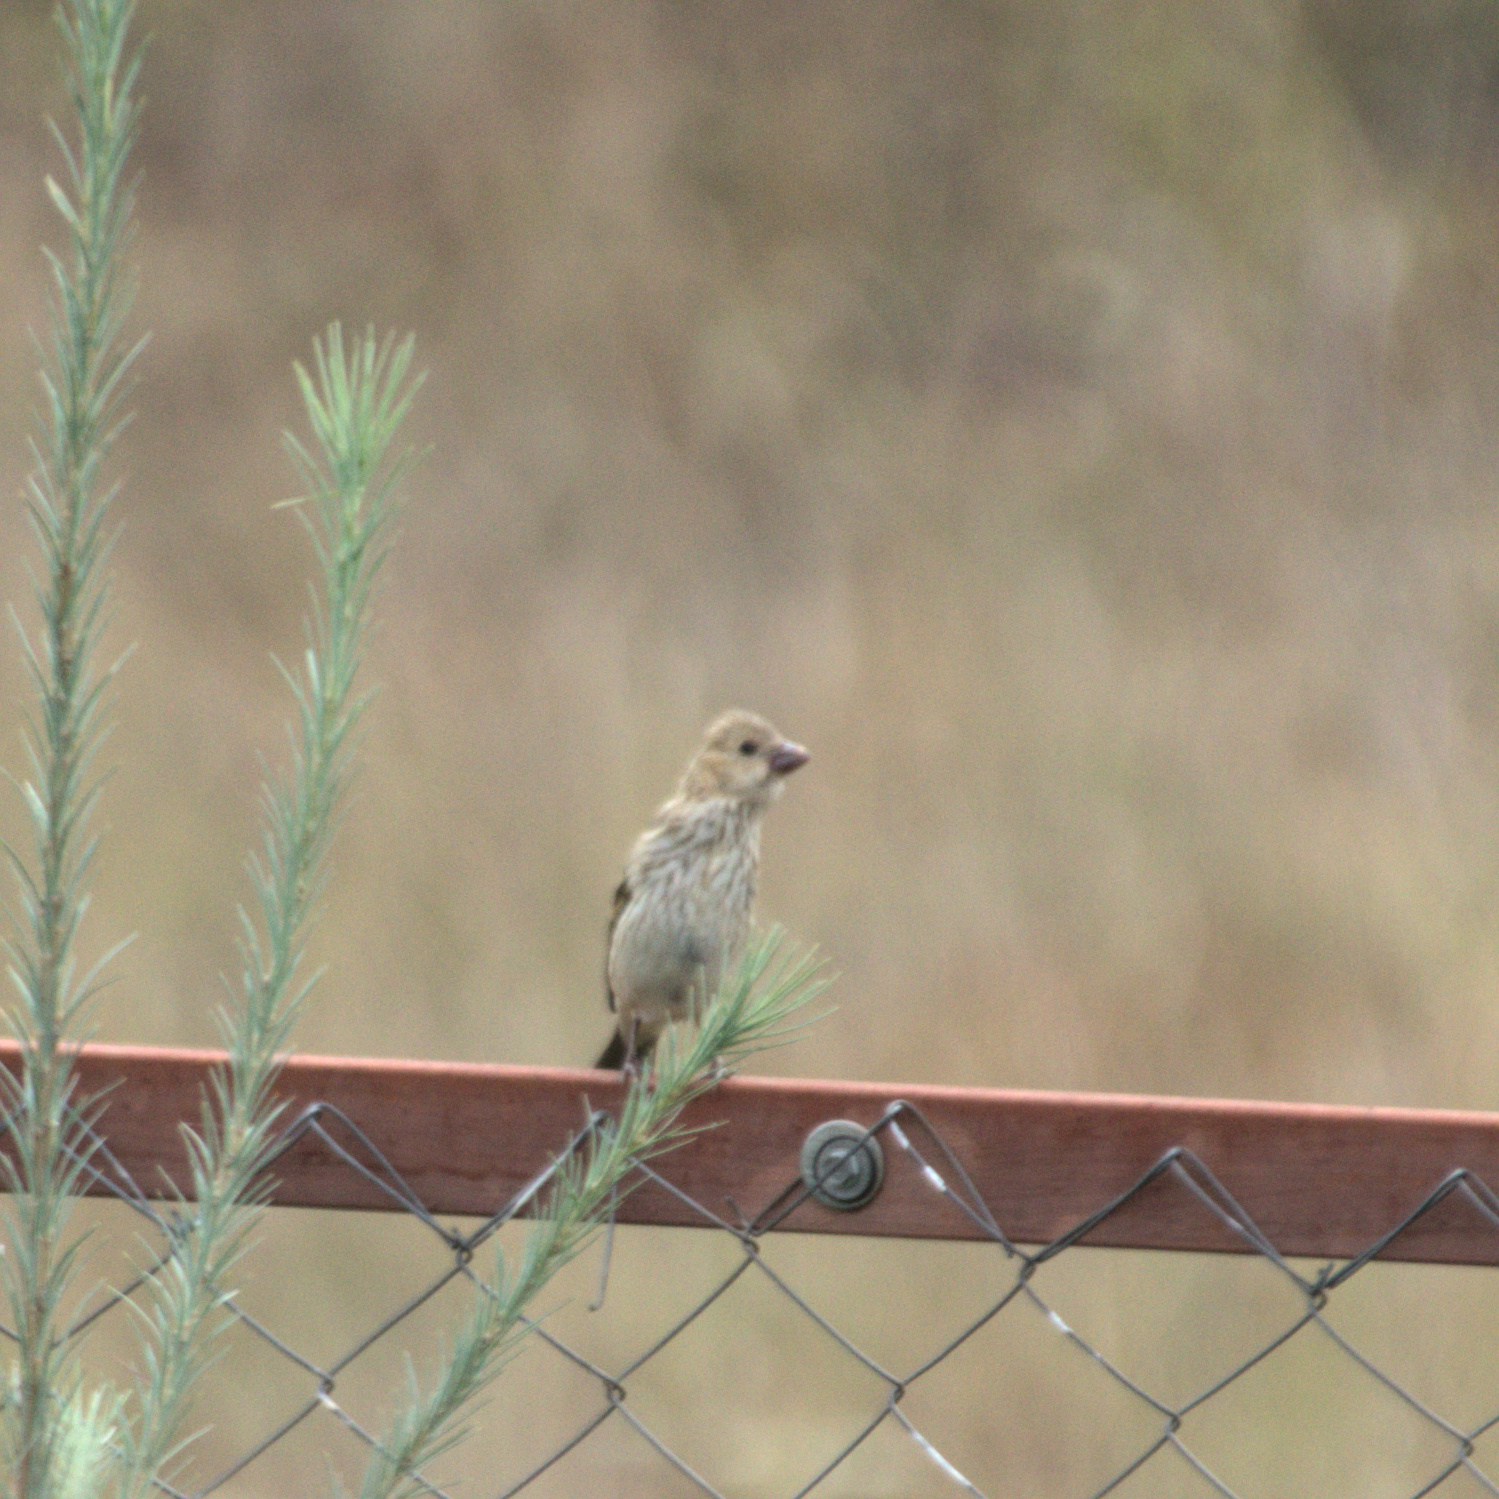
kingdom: Animalia
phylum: Chordata
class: Aves
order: Passeriformes
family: Fringillidae
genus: Carpodacus
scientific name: Carpodacus erythrinus
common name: Common rosefinch
